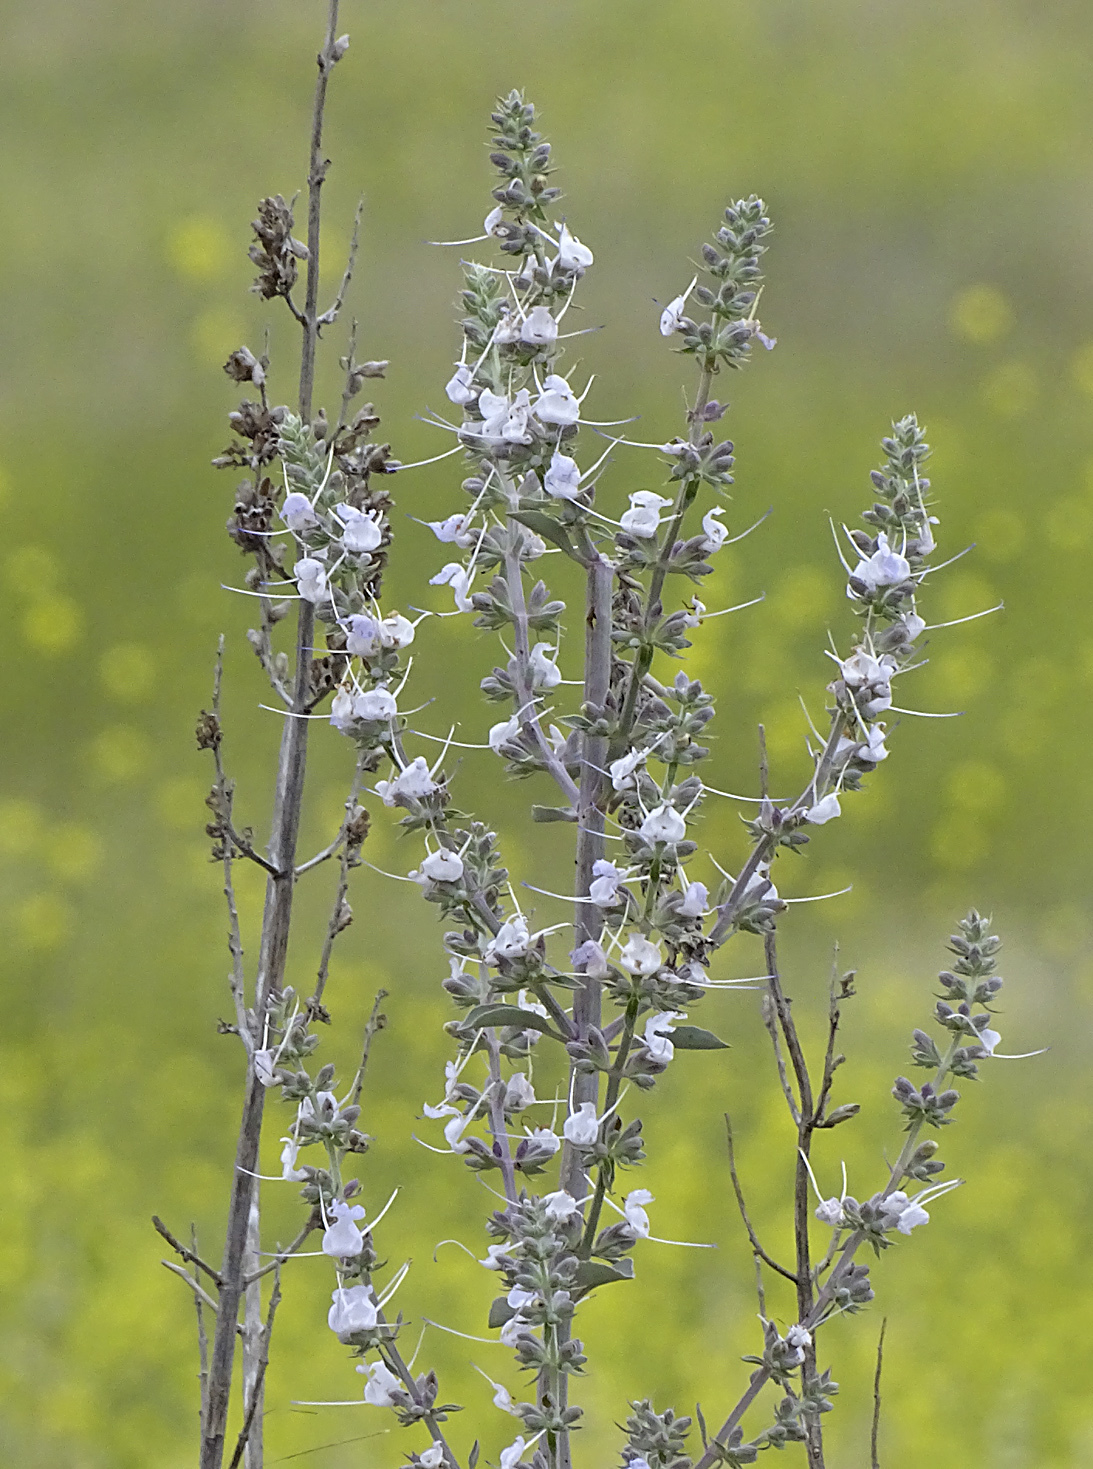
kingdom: Plantae
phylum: Tracheophyta
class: Magnoliopsida
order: Lamiales
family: Lamiaceae
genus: Salvia
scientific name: Salvia apiana
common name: White sage
